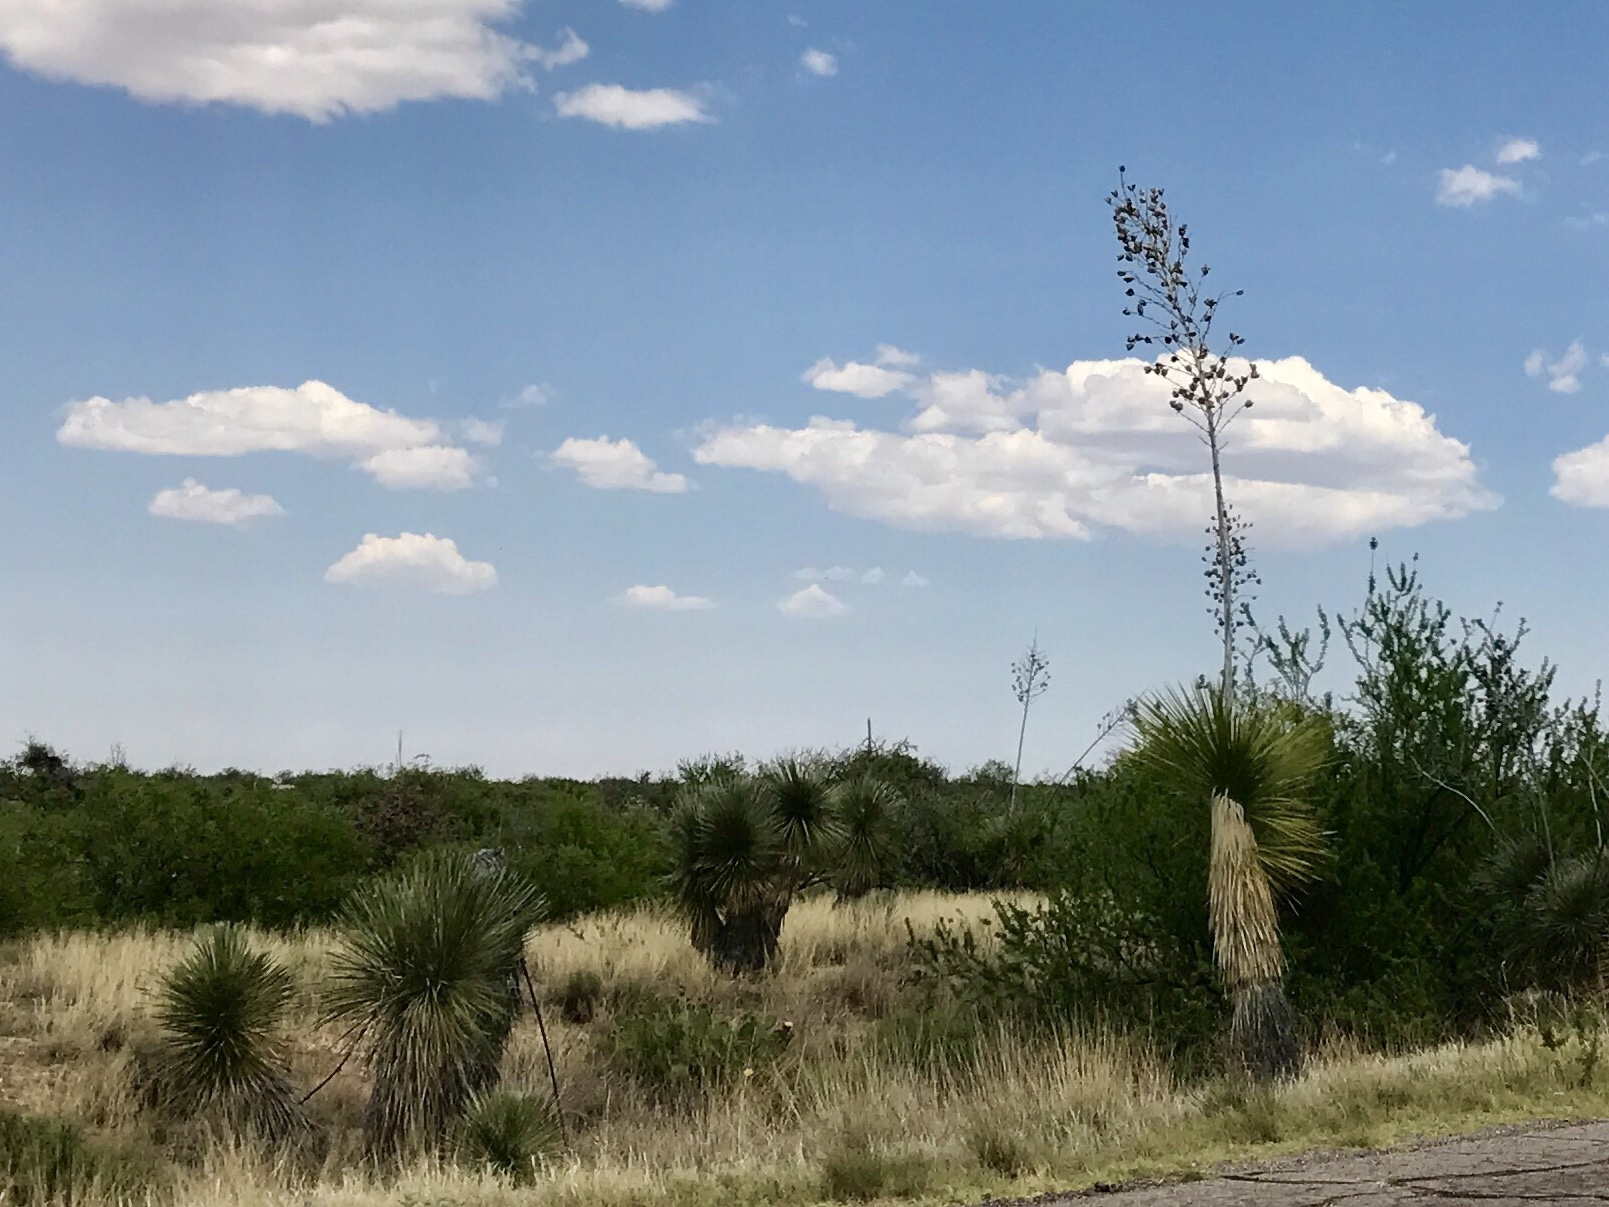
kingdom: Plantae
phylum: Tracheophyta
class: Liliopsida
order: Asparagales
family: Asparagaceae
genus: Yucca
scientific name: Yucca elata
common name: Palmella
